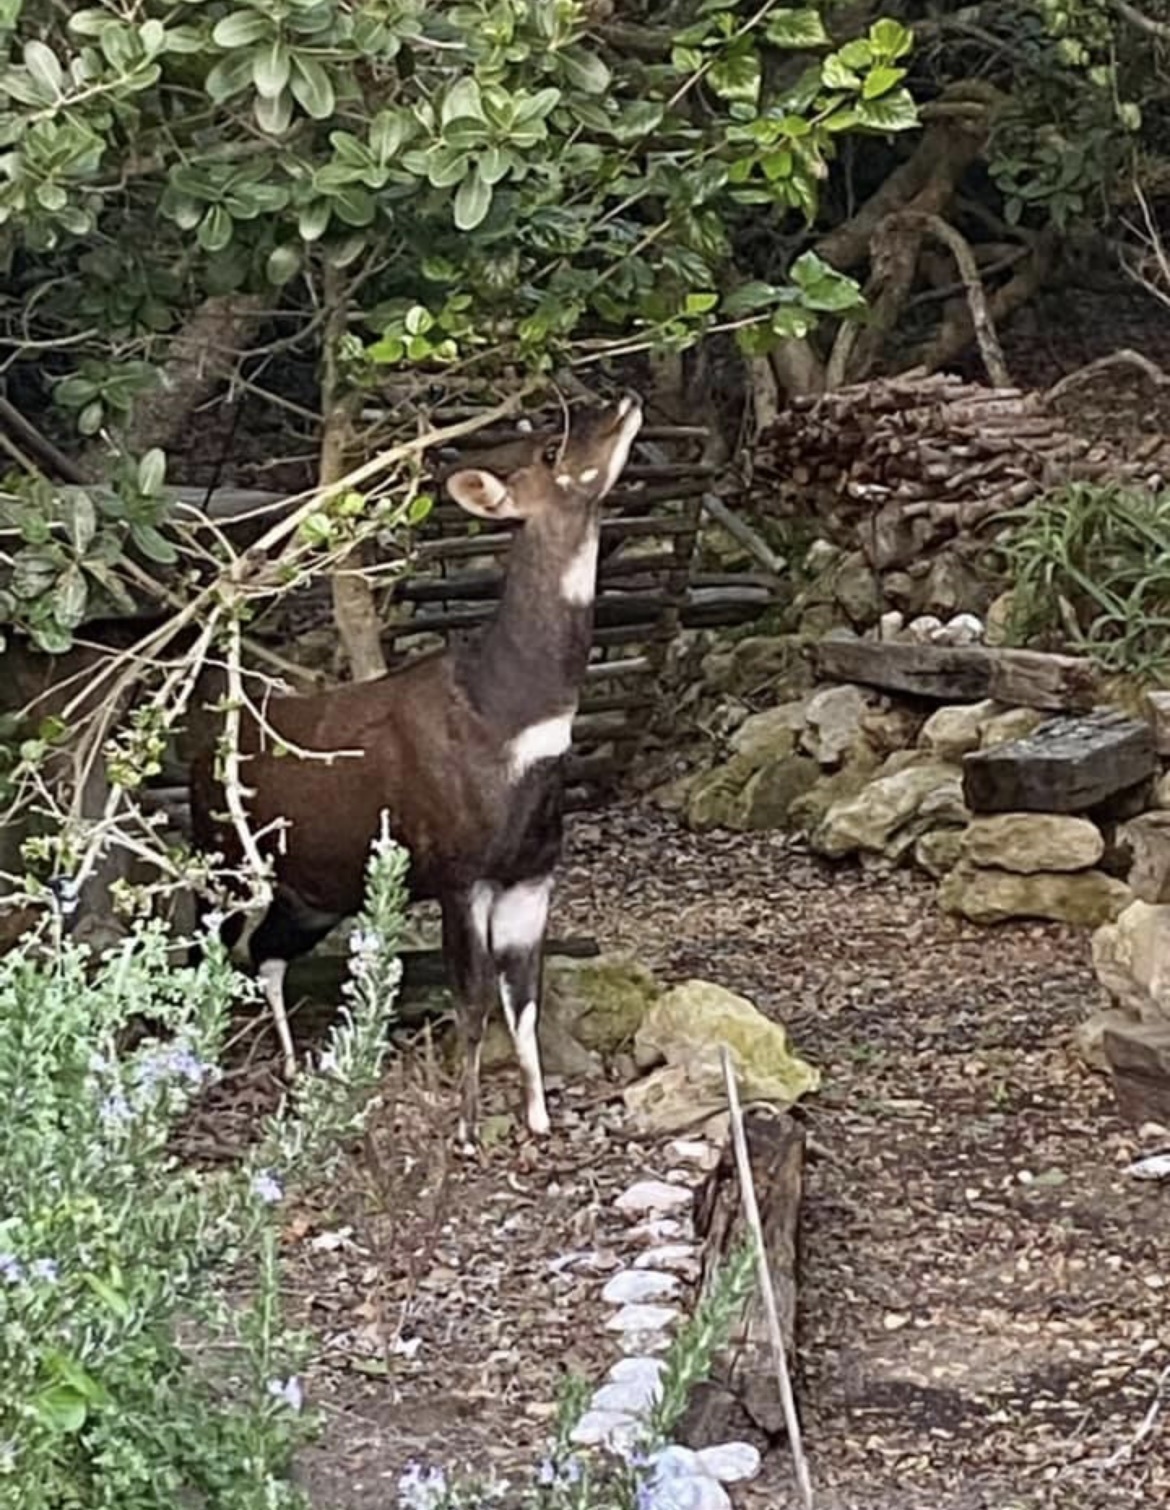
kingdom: Animalia
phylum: Chordata
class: Mammalia
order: Artiodactyla
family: Bovidae
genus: Tragelaphus
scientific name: Tragelaphus scriptus
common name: Bushbuck
